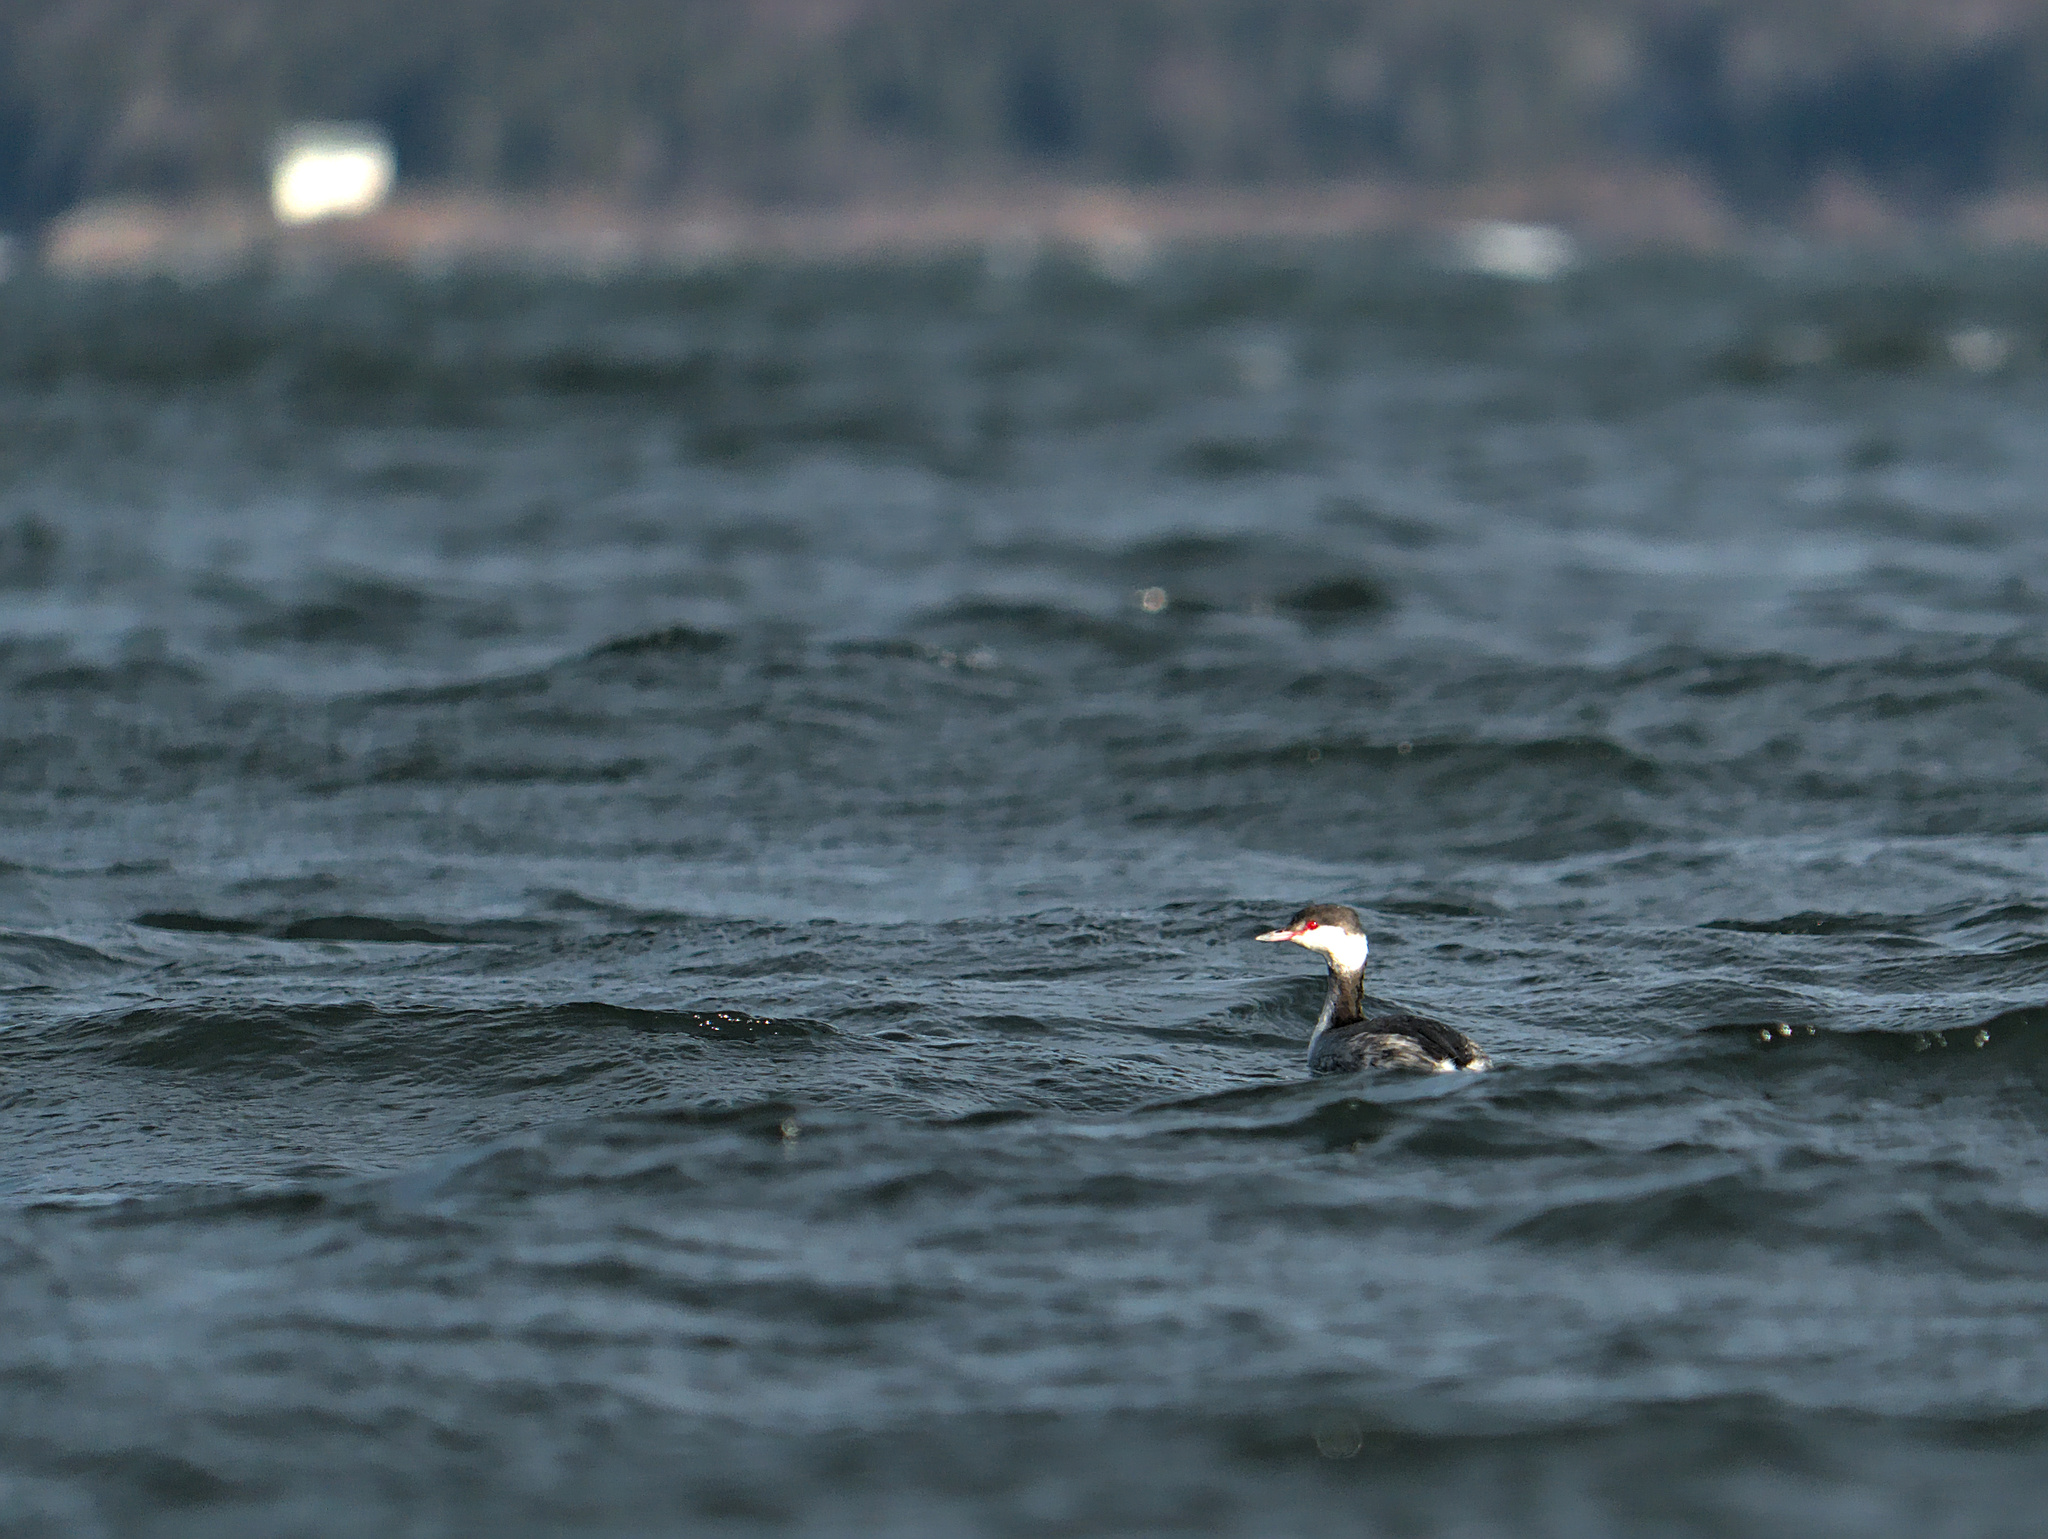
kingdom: Animalia
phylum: Chordata
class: Aves
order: Podicipediformes
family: Podicipedidae
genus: Podiceps
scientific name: Podiceps auritus
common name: Horned grebe
